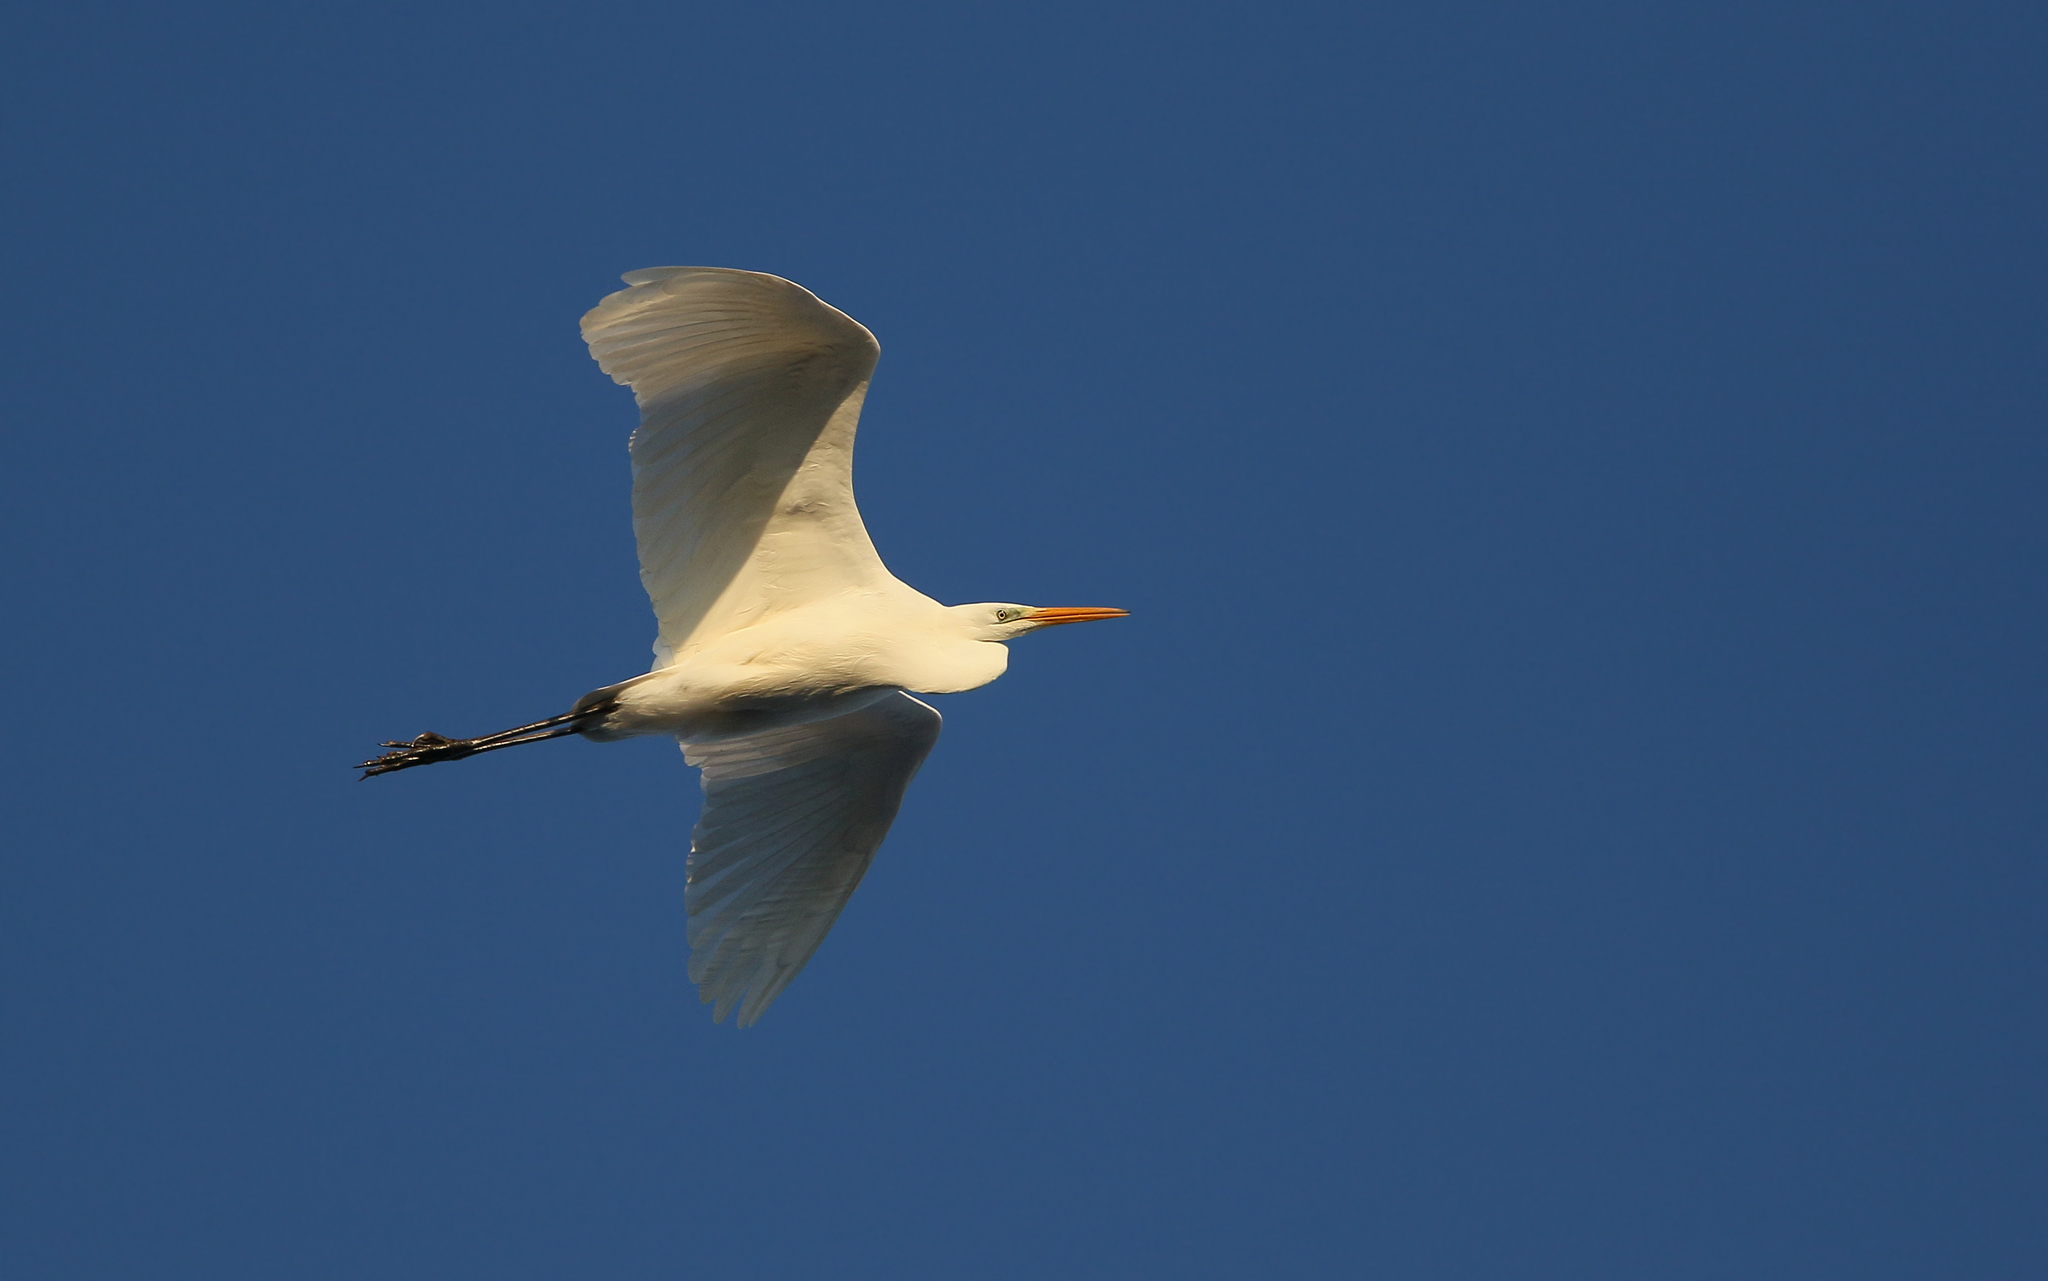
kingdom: Animalia
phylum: Chordata
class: Aves
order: Pelecaniformes
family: Ardeidae
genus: Ardea
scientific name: Ardea alba
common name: Great egret
